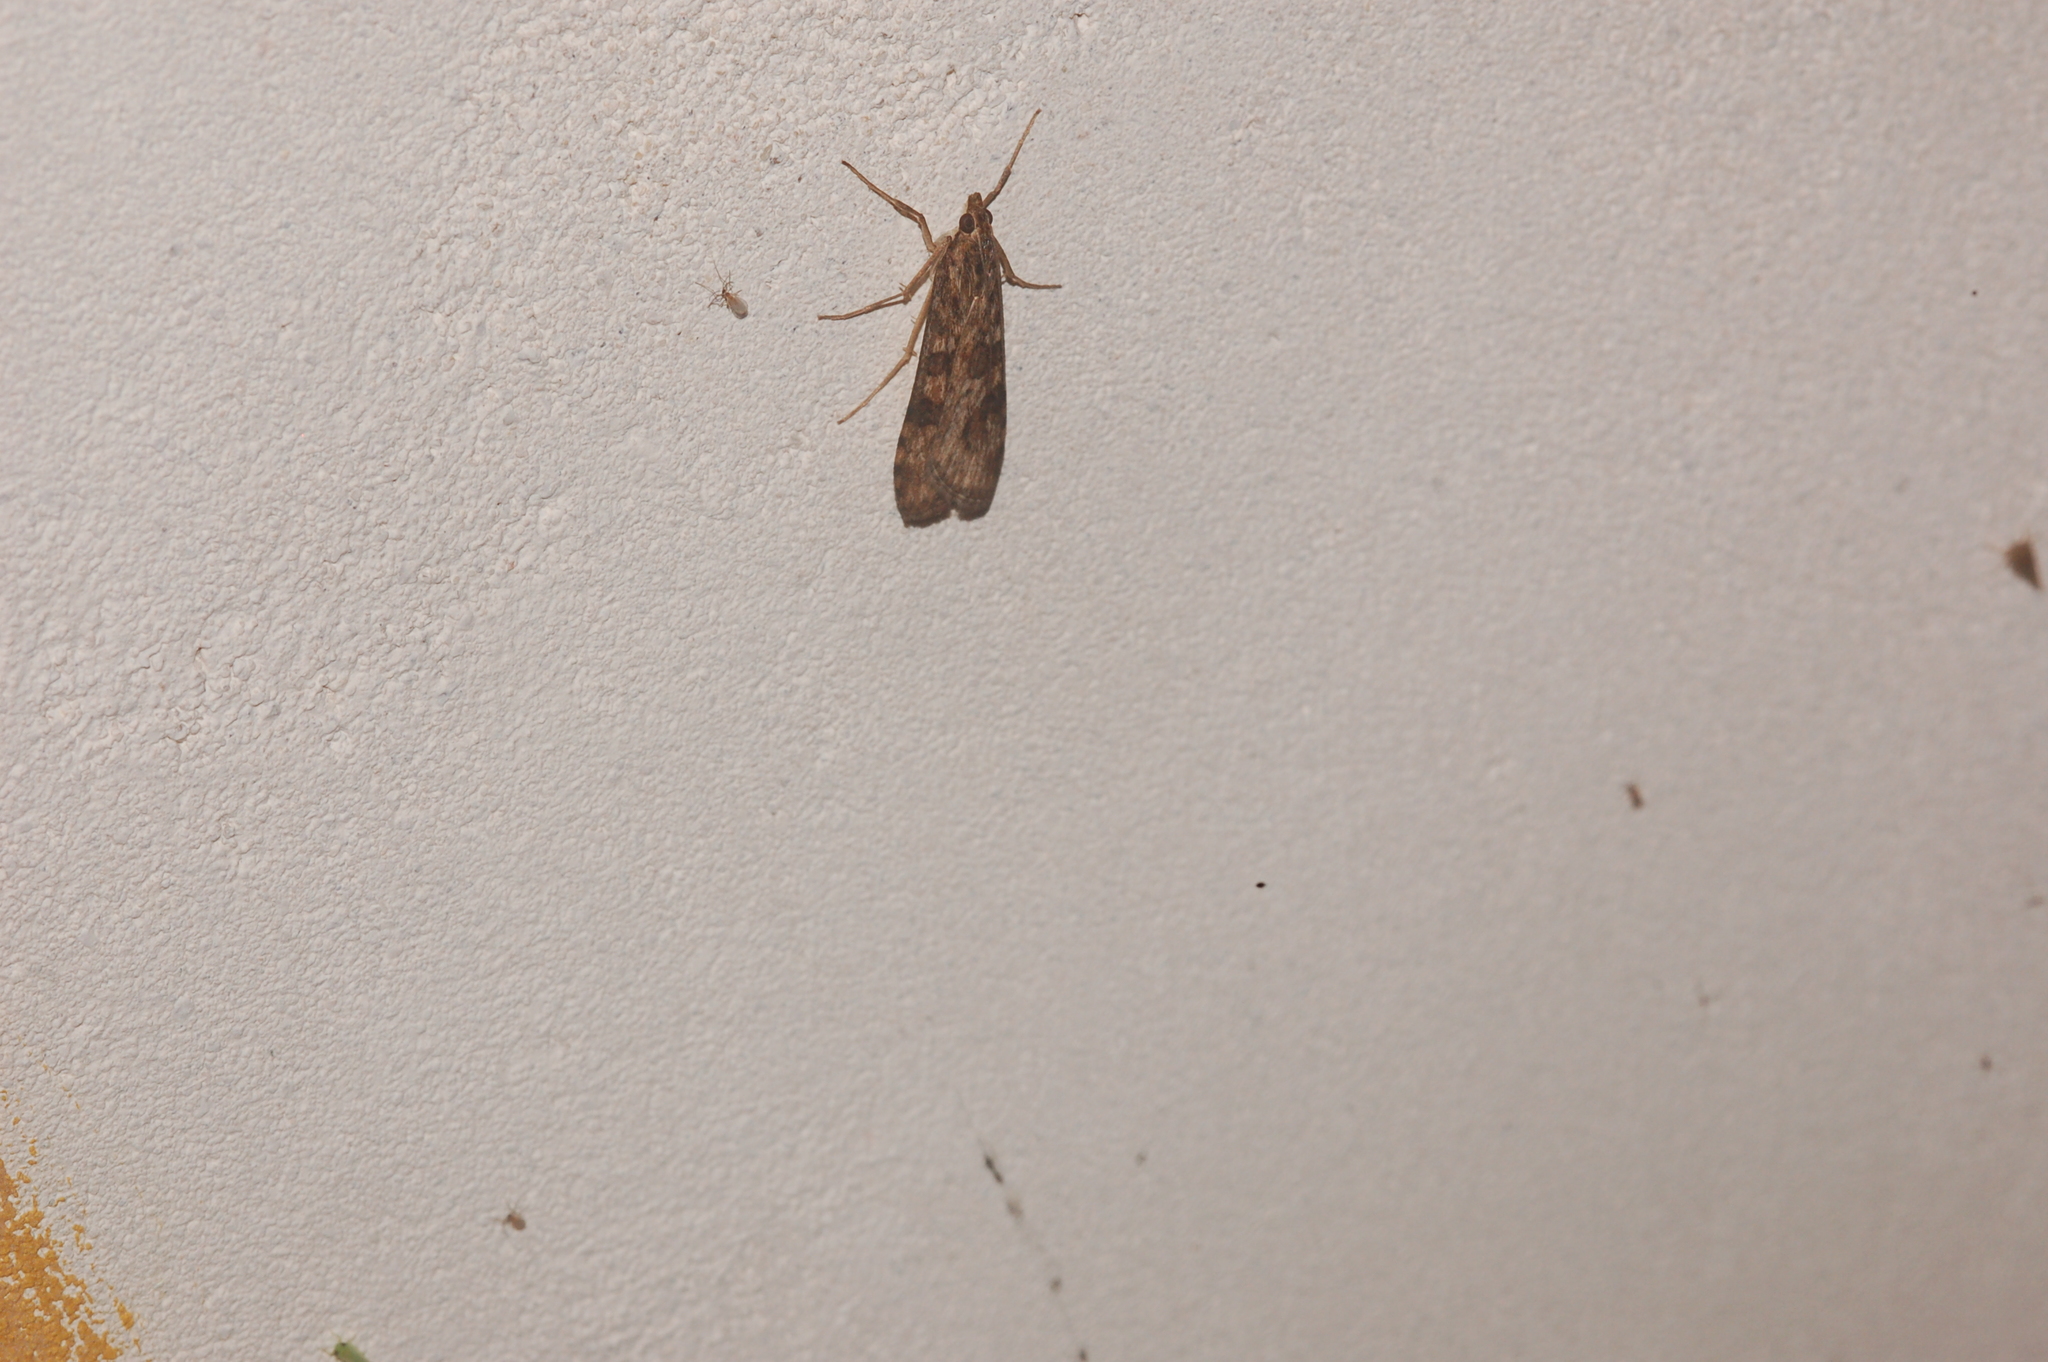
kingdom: Animalia
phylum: Arthropoda
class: Insecta
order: Lepidoptera
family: Crambidae
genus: Nomophila
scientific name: Nomophila nearctica
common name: American rush veneer
